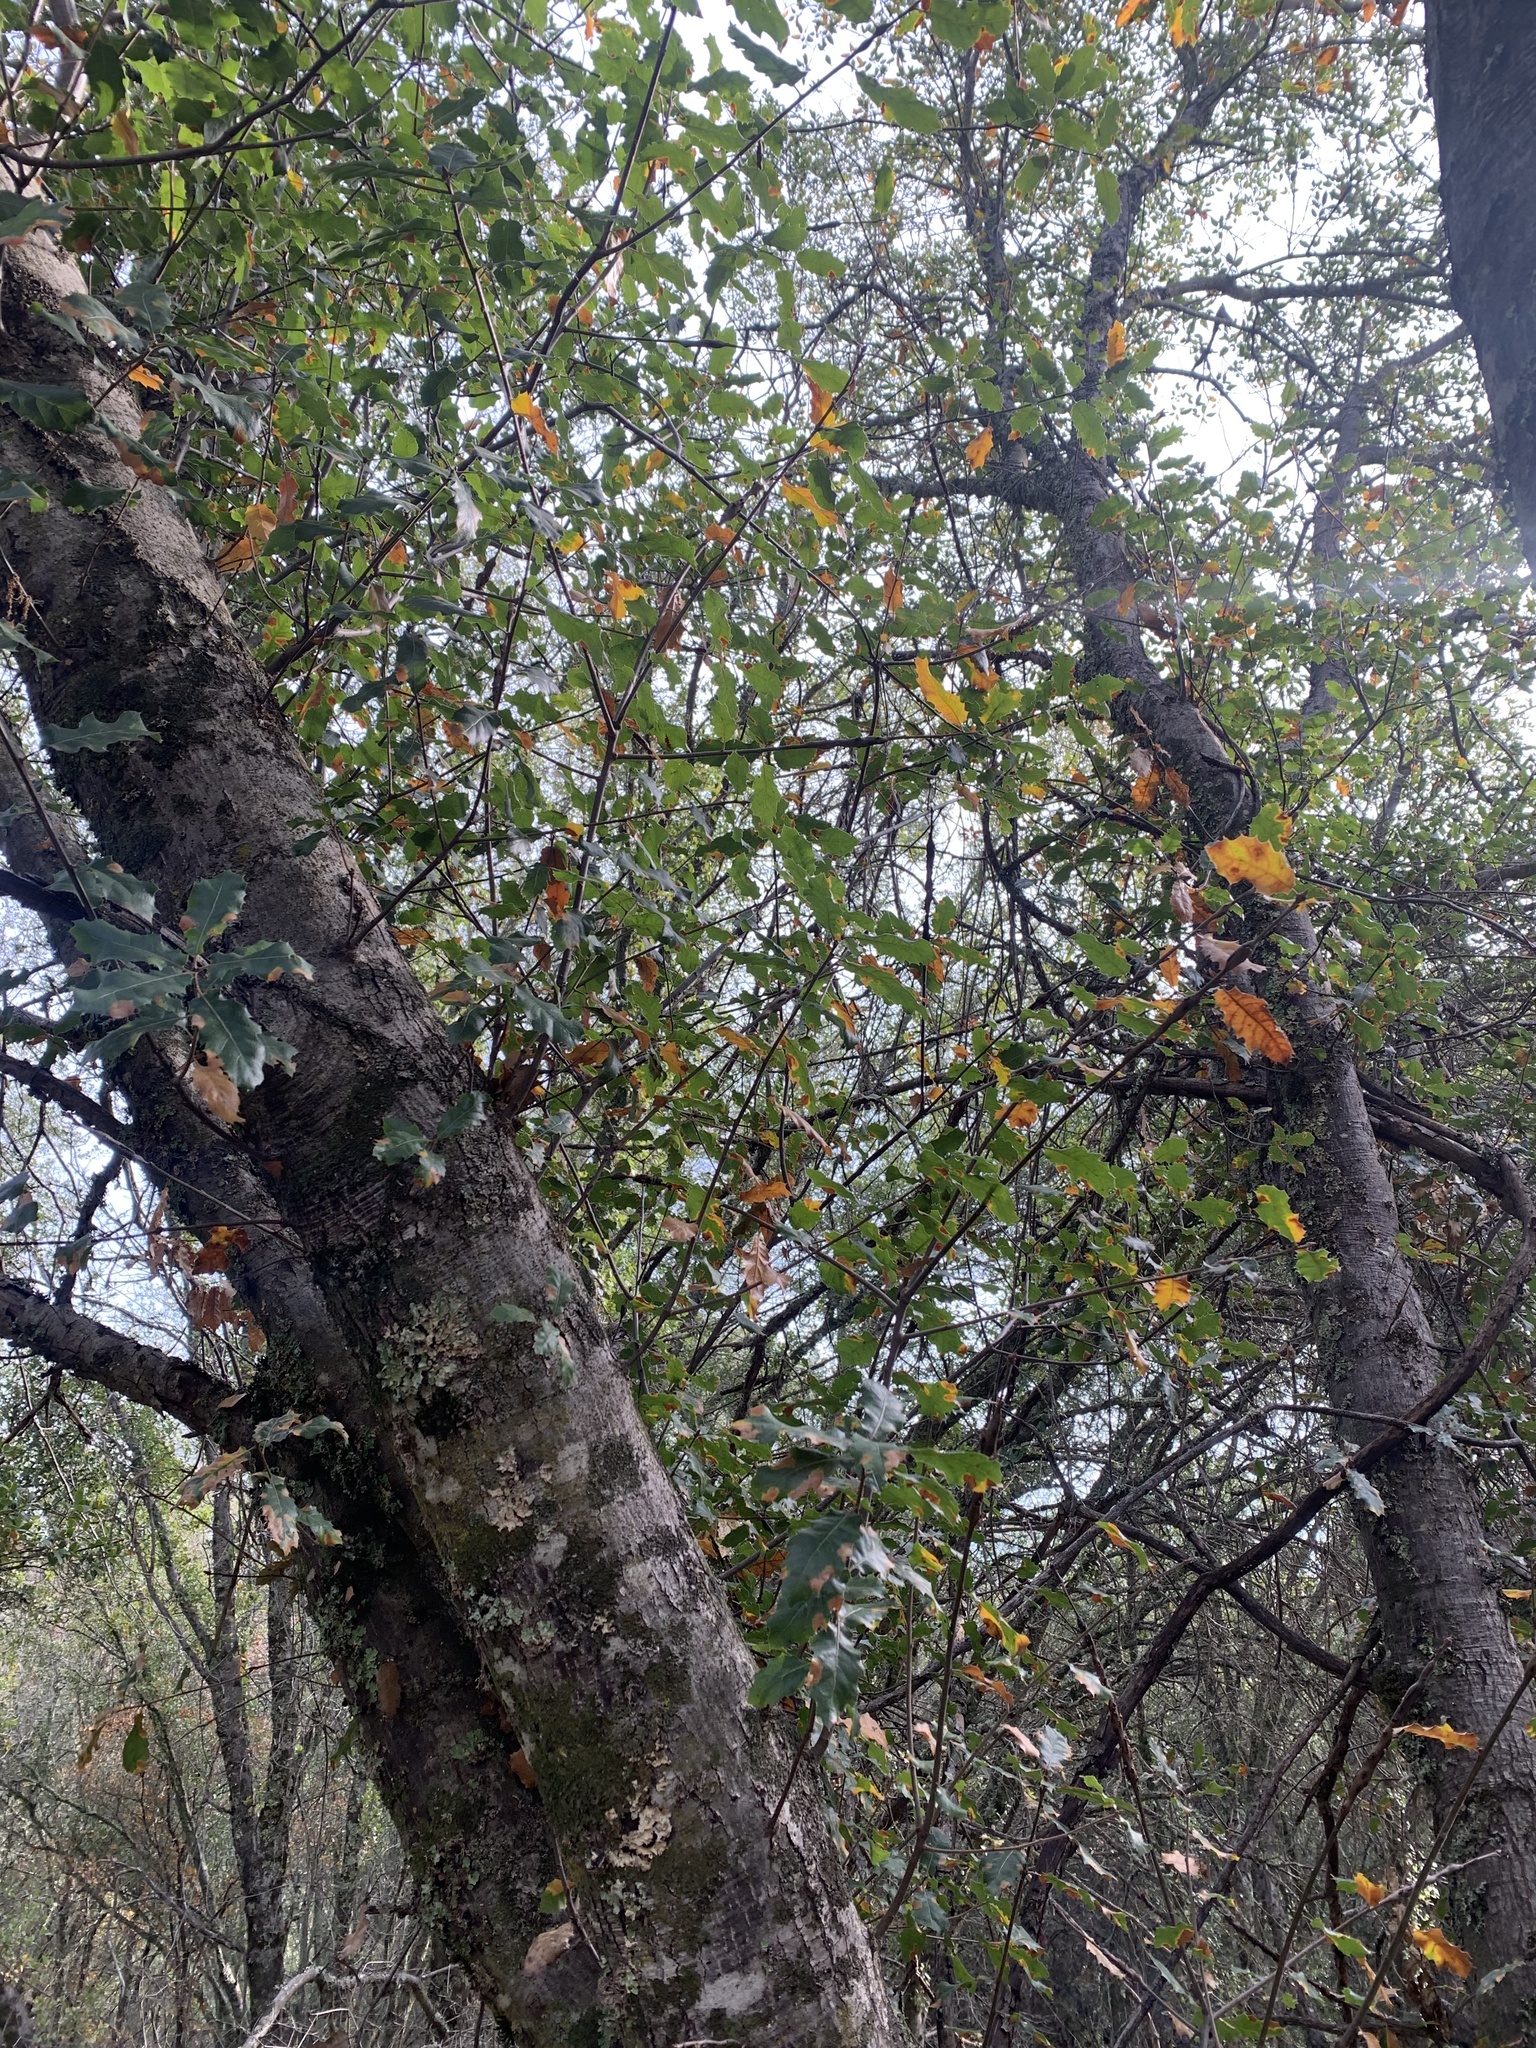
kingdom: Plantae
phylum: Tracheophyta
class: Magnoliopsida
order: Fagales
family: Fagaceae
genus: Quercus
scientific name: Quercus morehus
